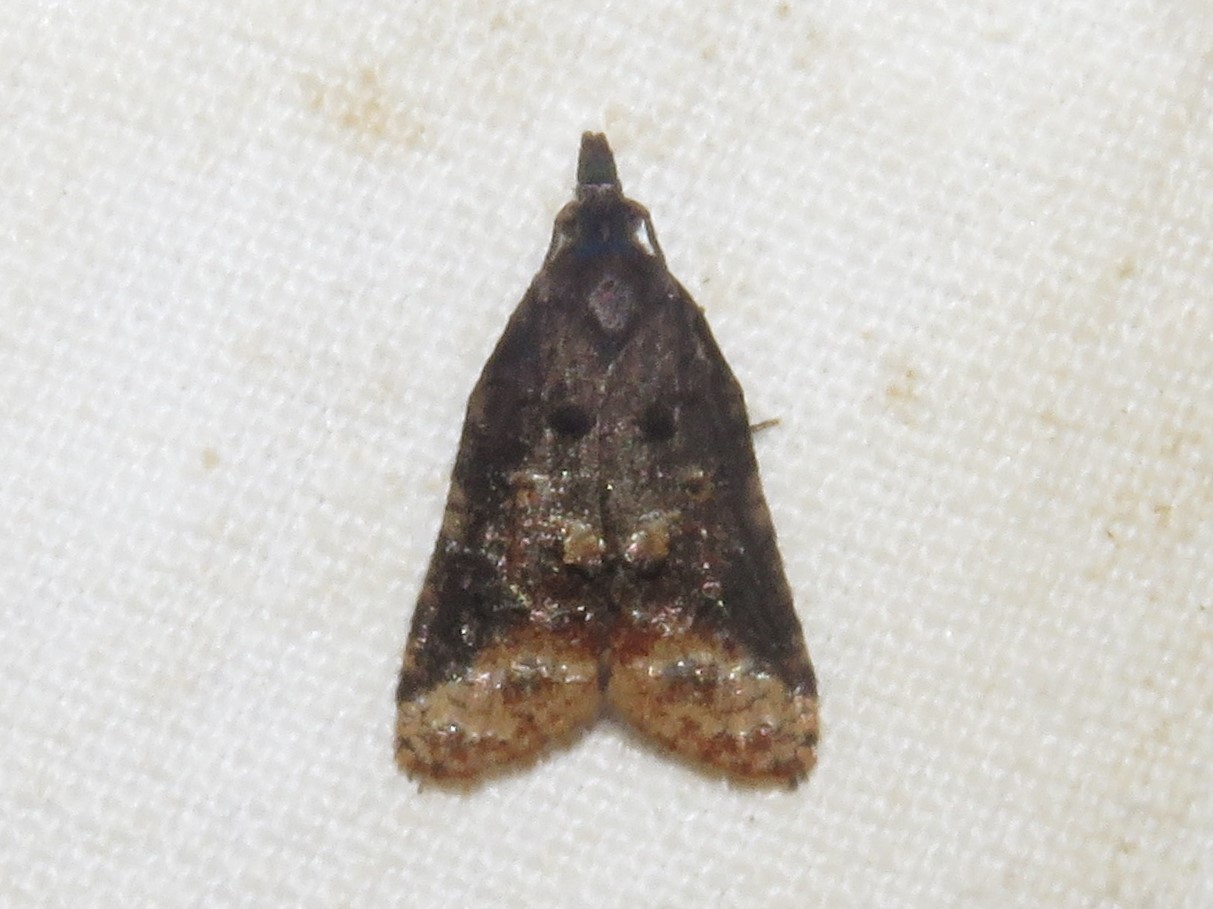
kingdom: Animalia
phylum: Arthropoda
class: Insecta
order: Lepidoptera
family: Tortricidae
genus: Platynota
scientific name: Platynota semiustana
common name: Singed platynota
